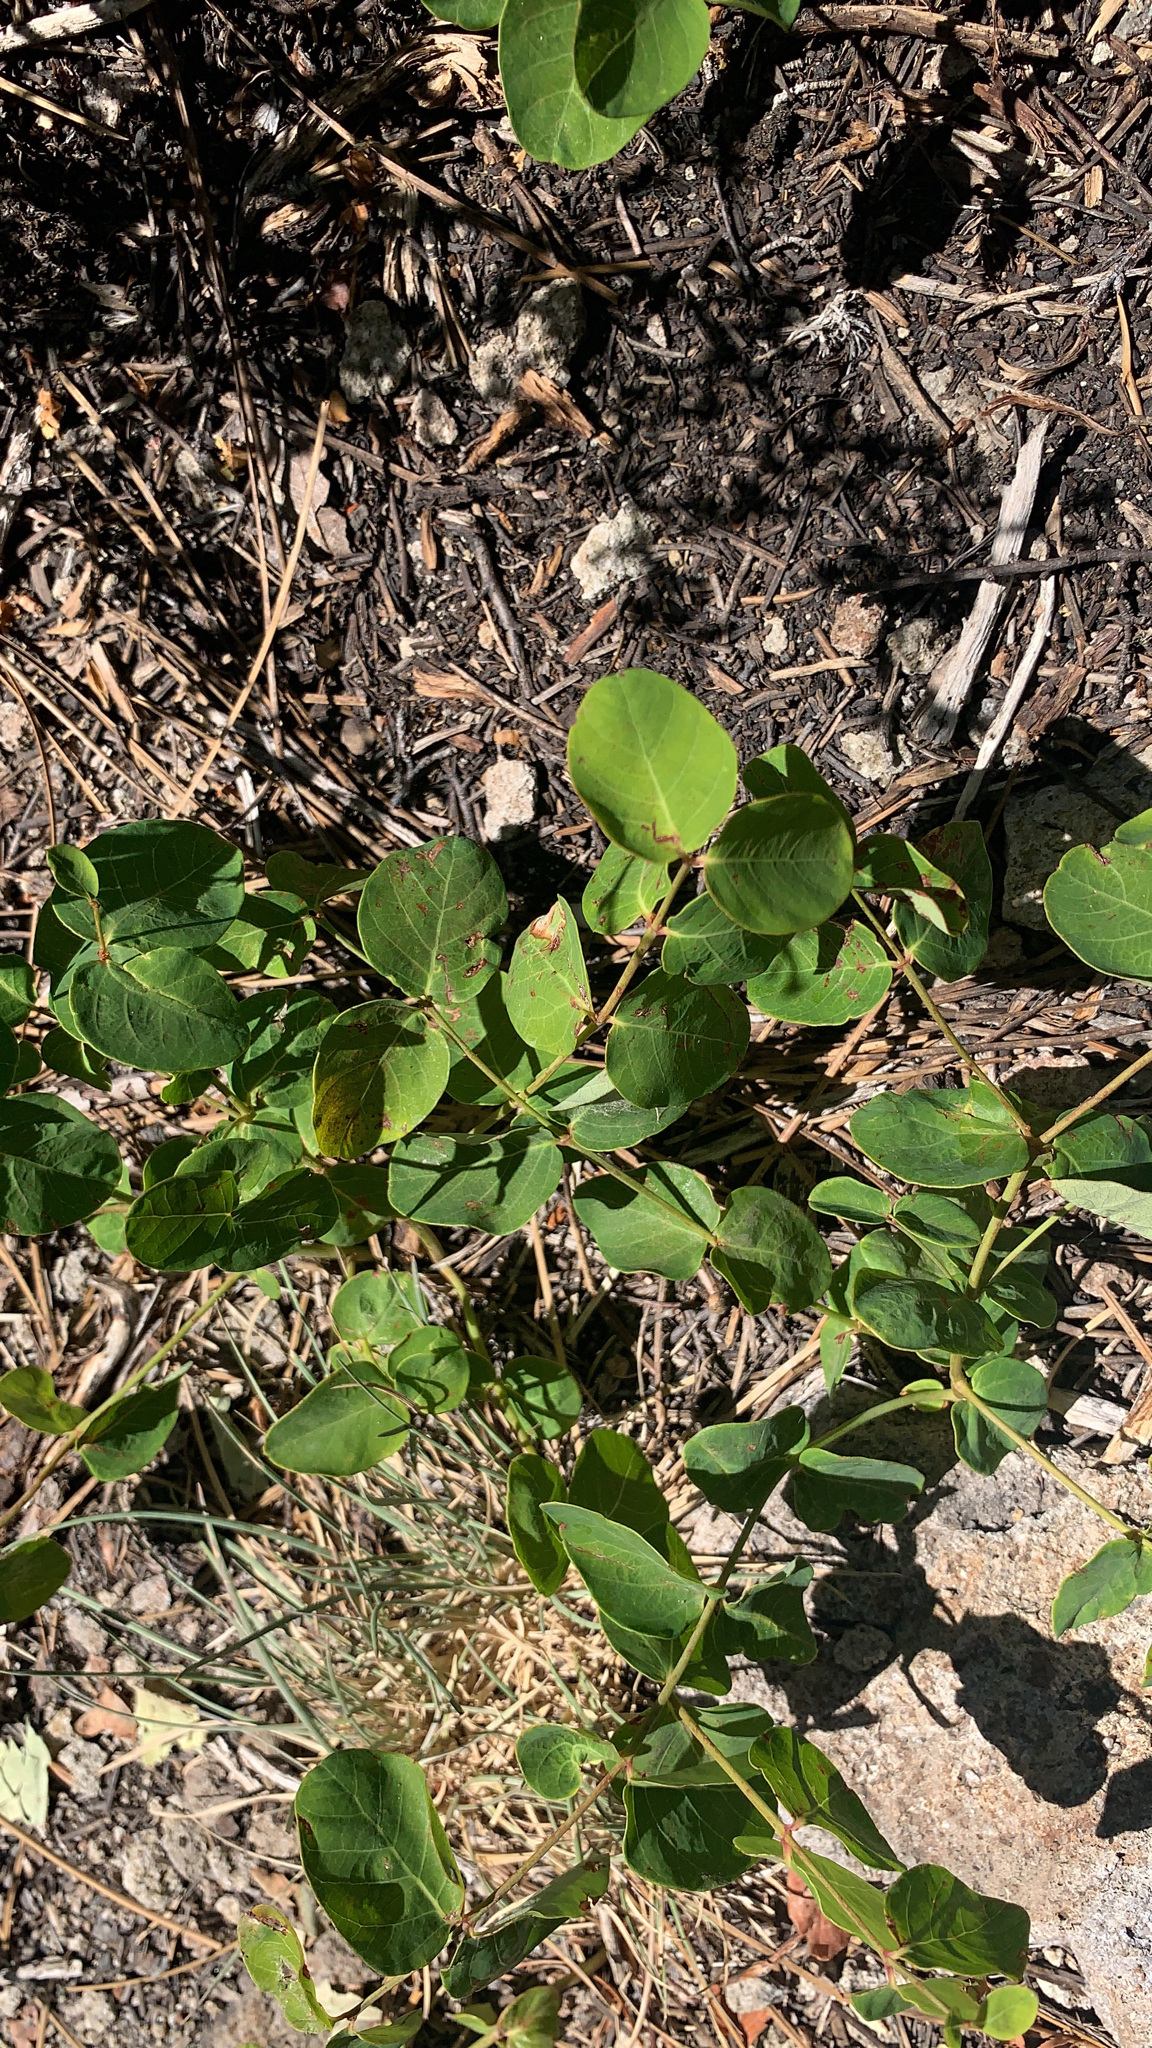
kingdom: Plantae
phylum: Tracheophyta
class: Magnoliopsida
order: Gentianales
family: Apocynaceae
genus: Apocynum
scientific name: Apocynum androsaemifolium
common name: Spreading dogbane
